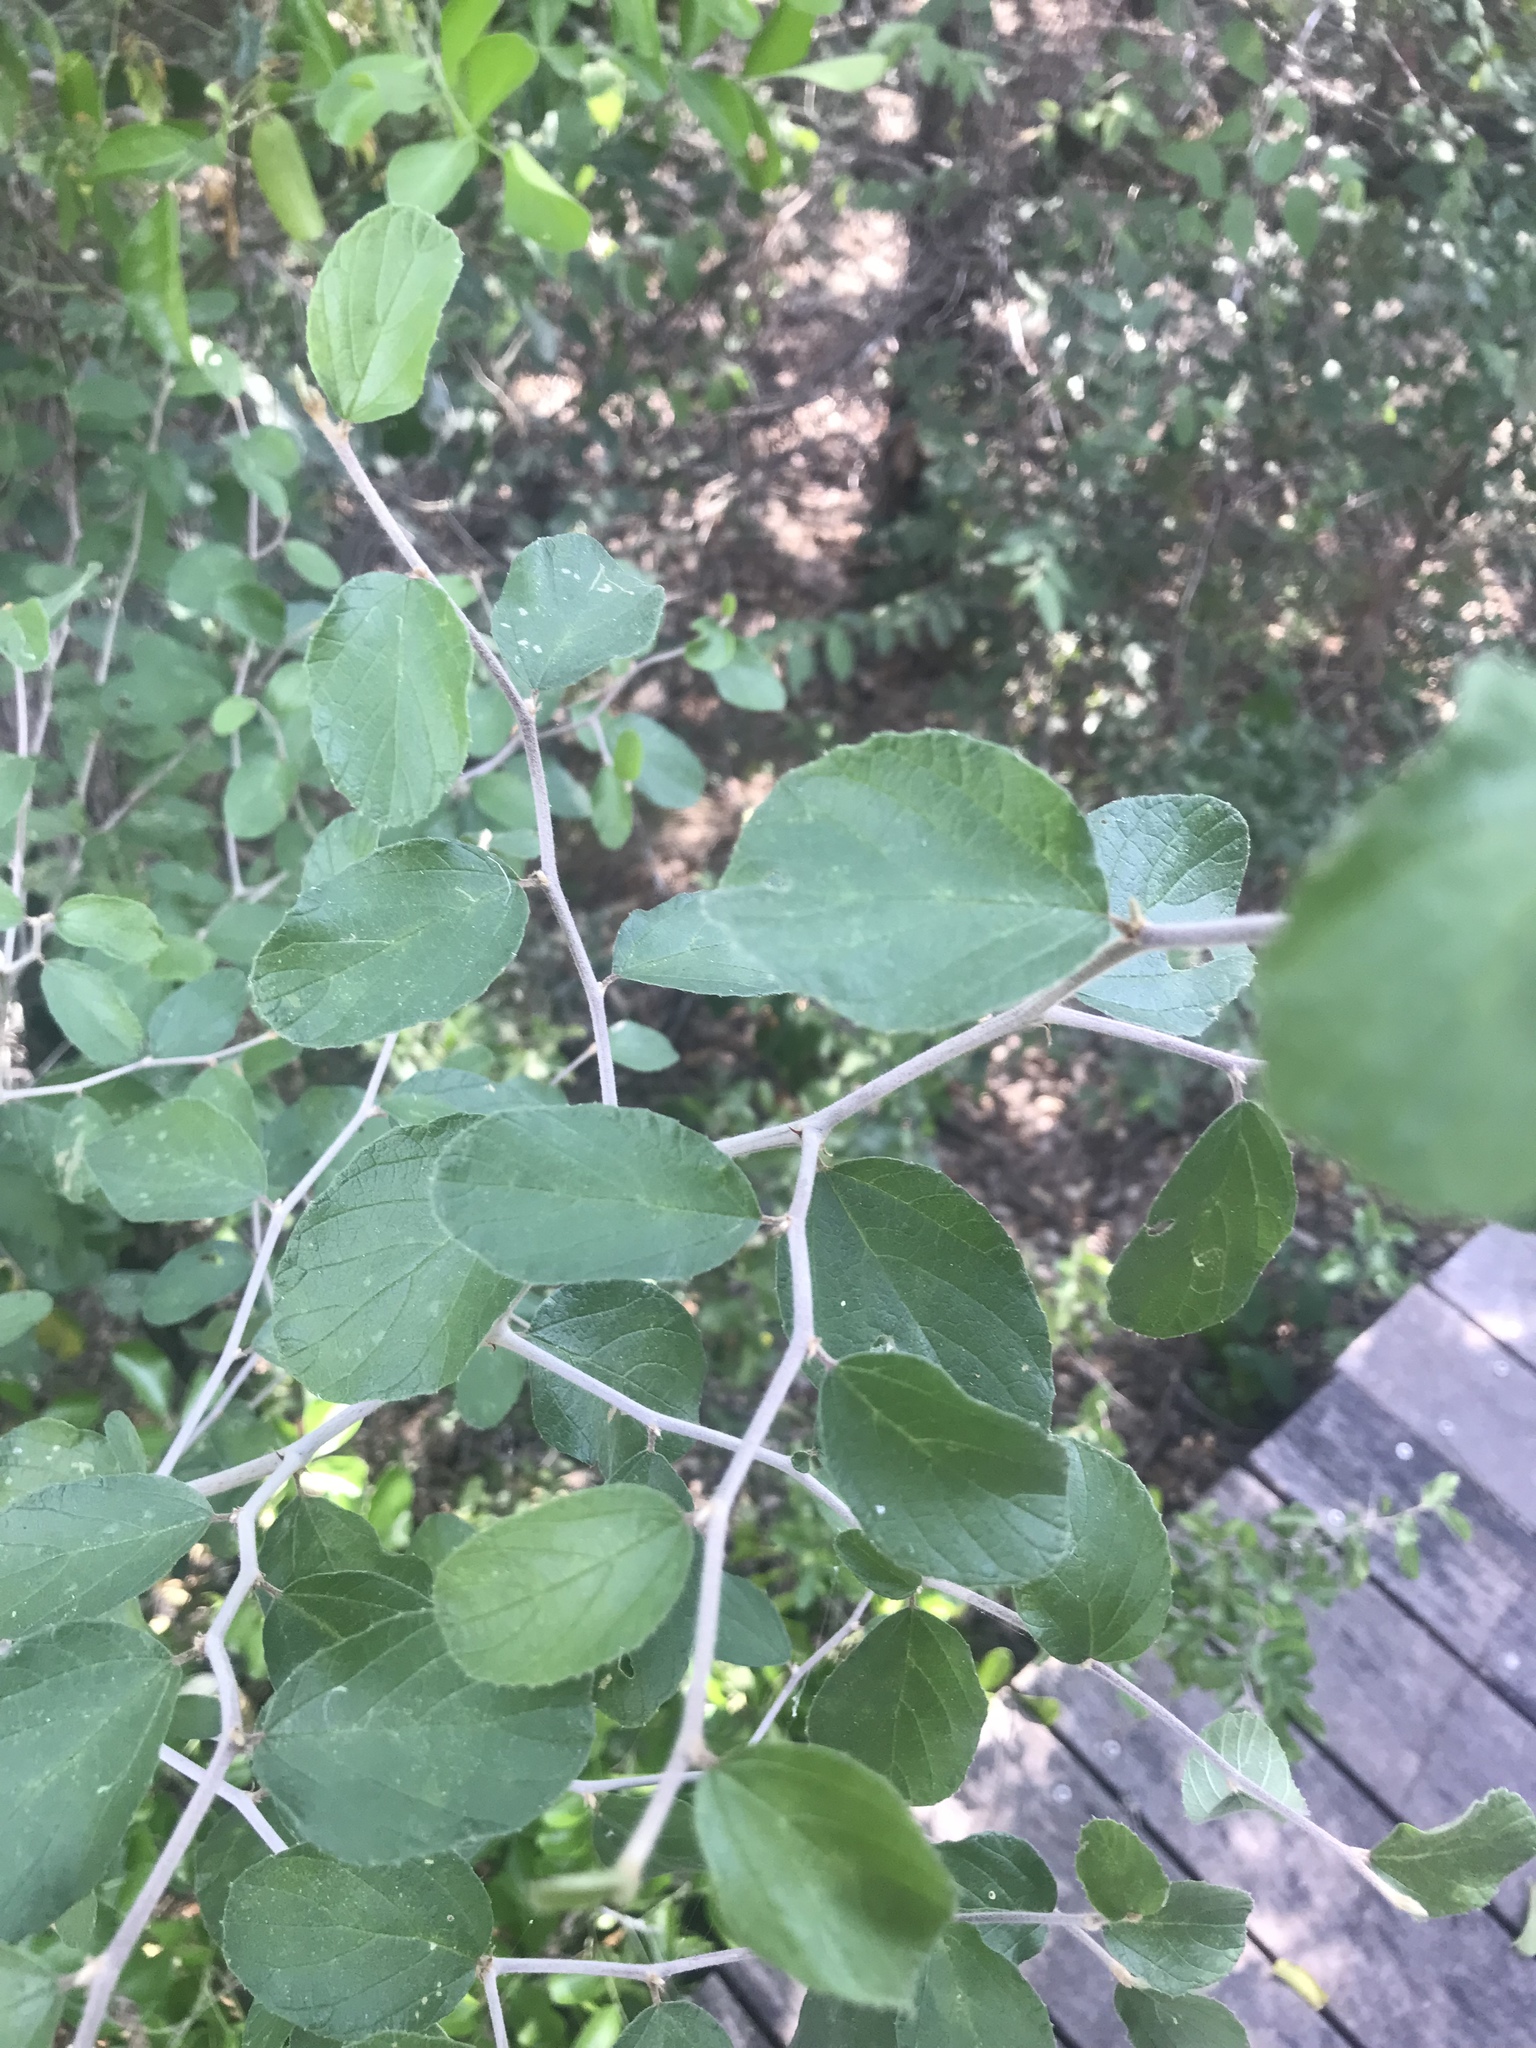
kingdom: Plantae
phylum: Tracheophyta
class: Magnoliopsida
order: Rosales
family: Rhamnaceae
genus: Colubrina
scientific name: Colubrina texensis
